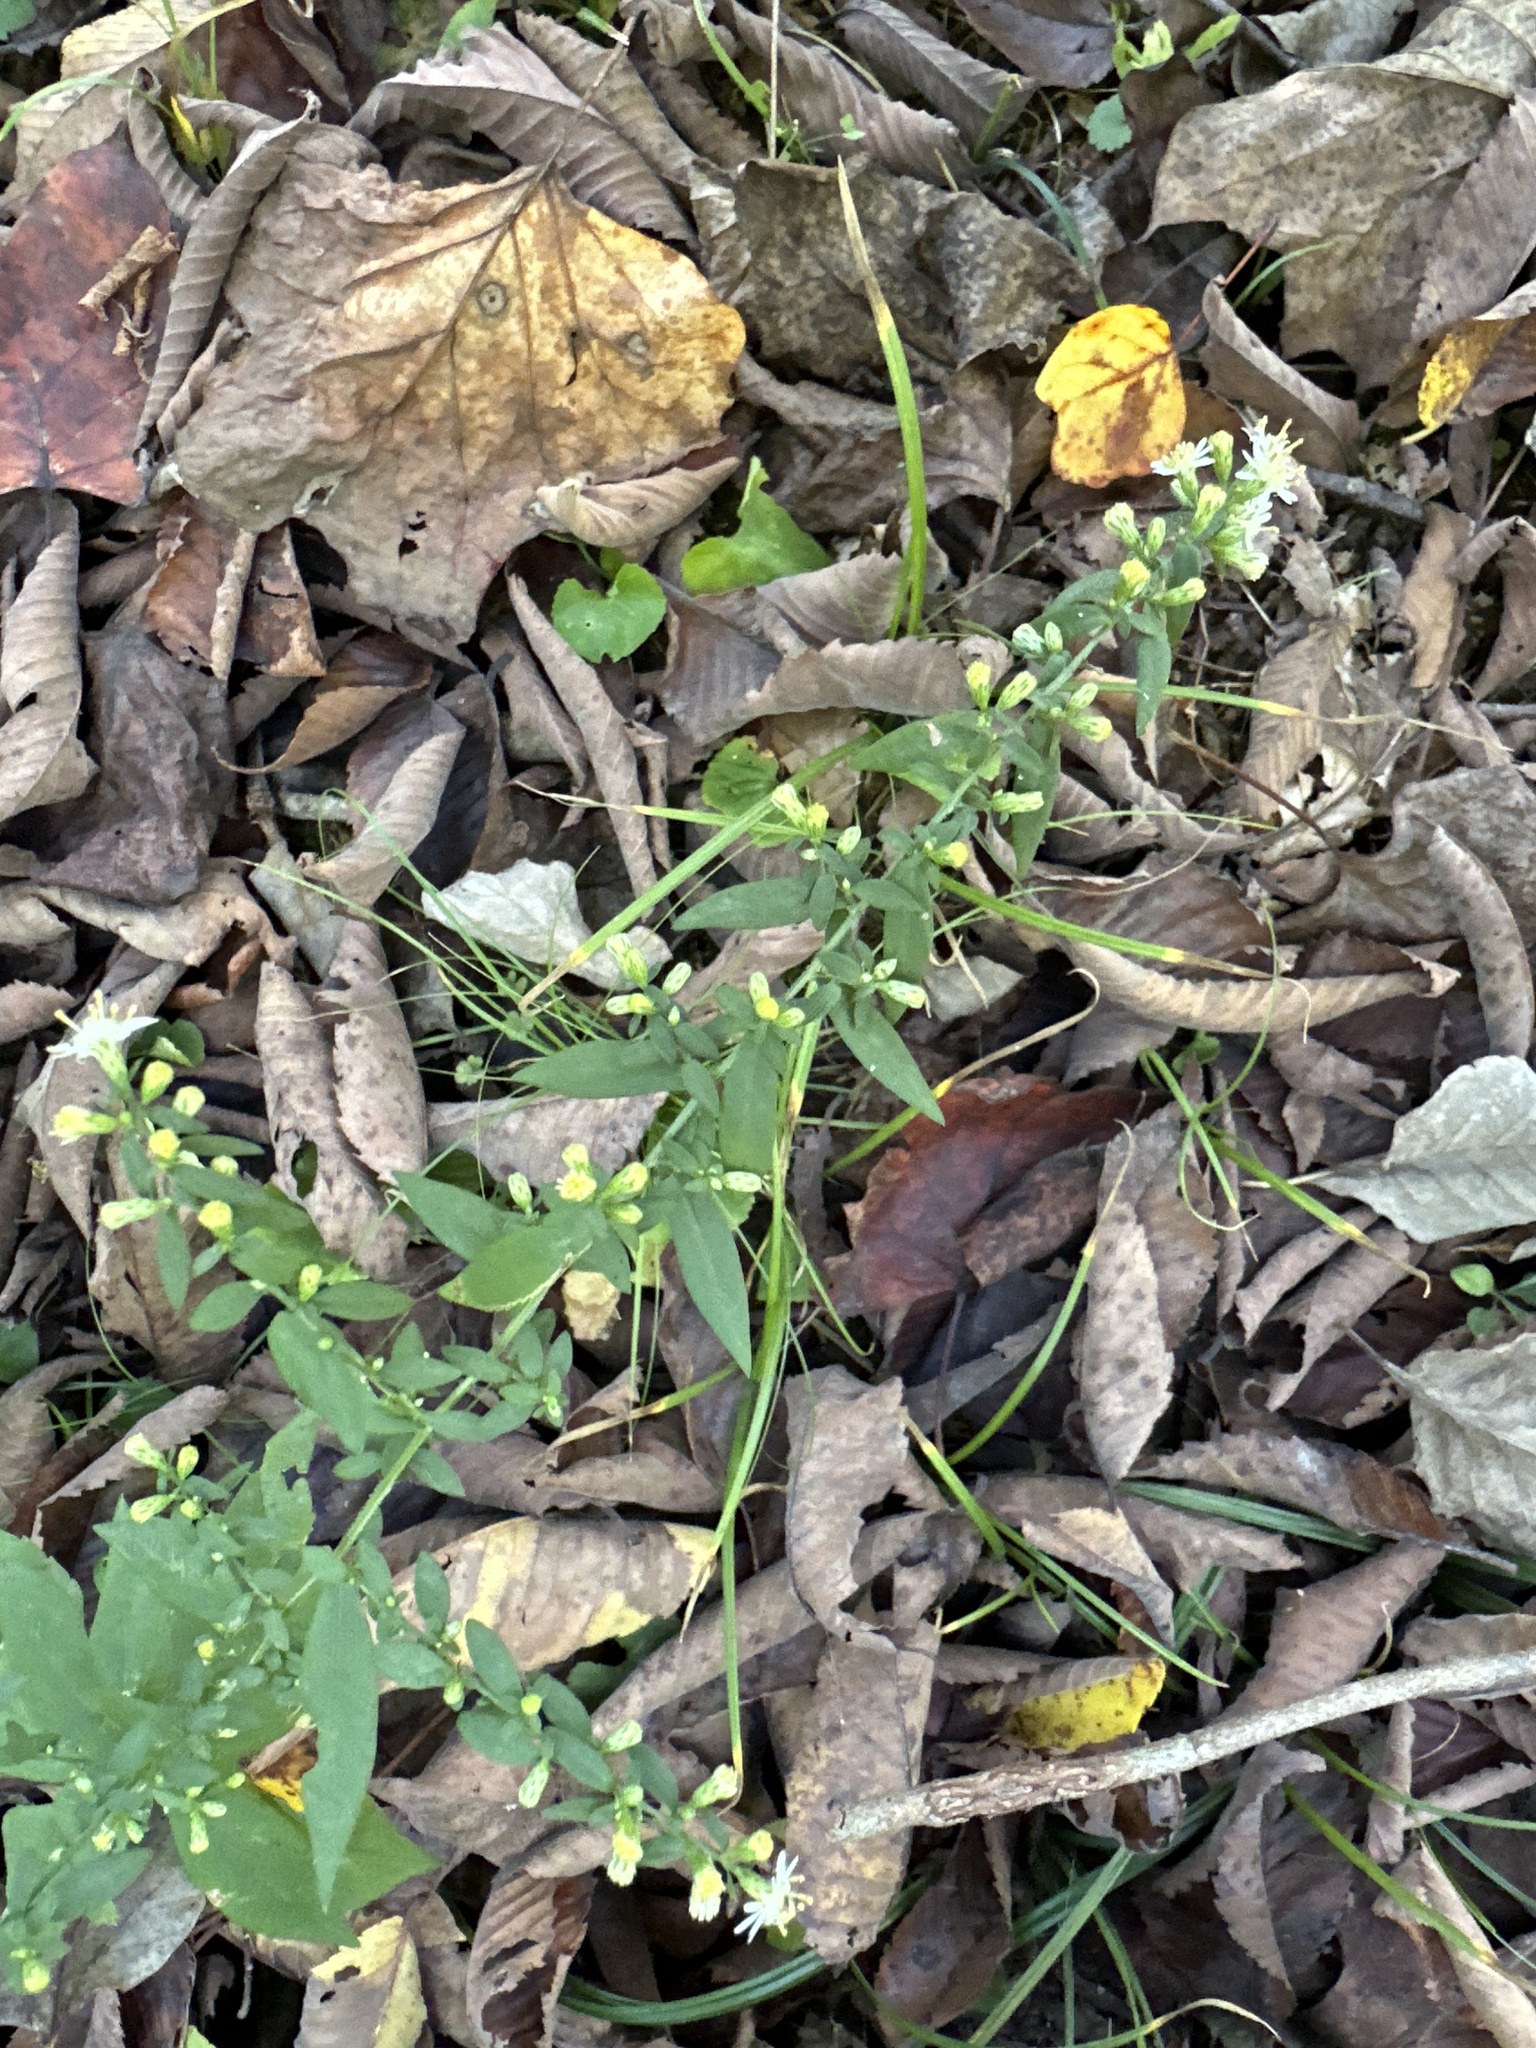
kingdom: Plantae
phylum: Tracheophyta
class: Magnoliopsida
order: Asterales
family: Asteraceae
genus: Symphyotrichum
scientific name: Symphyotrichum lateriflorum
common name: Calico aster
